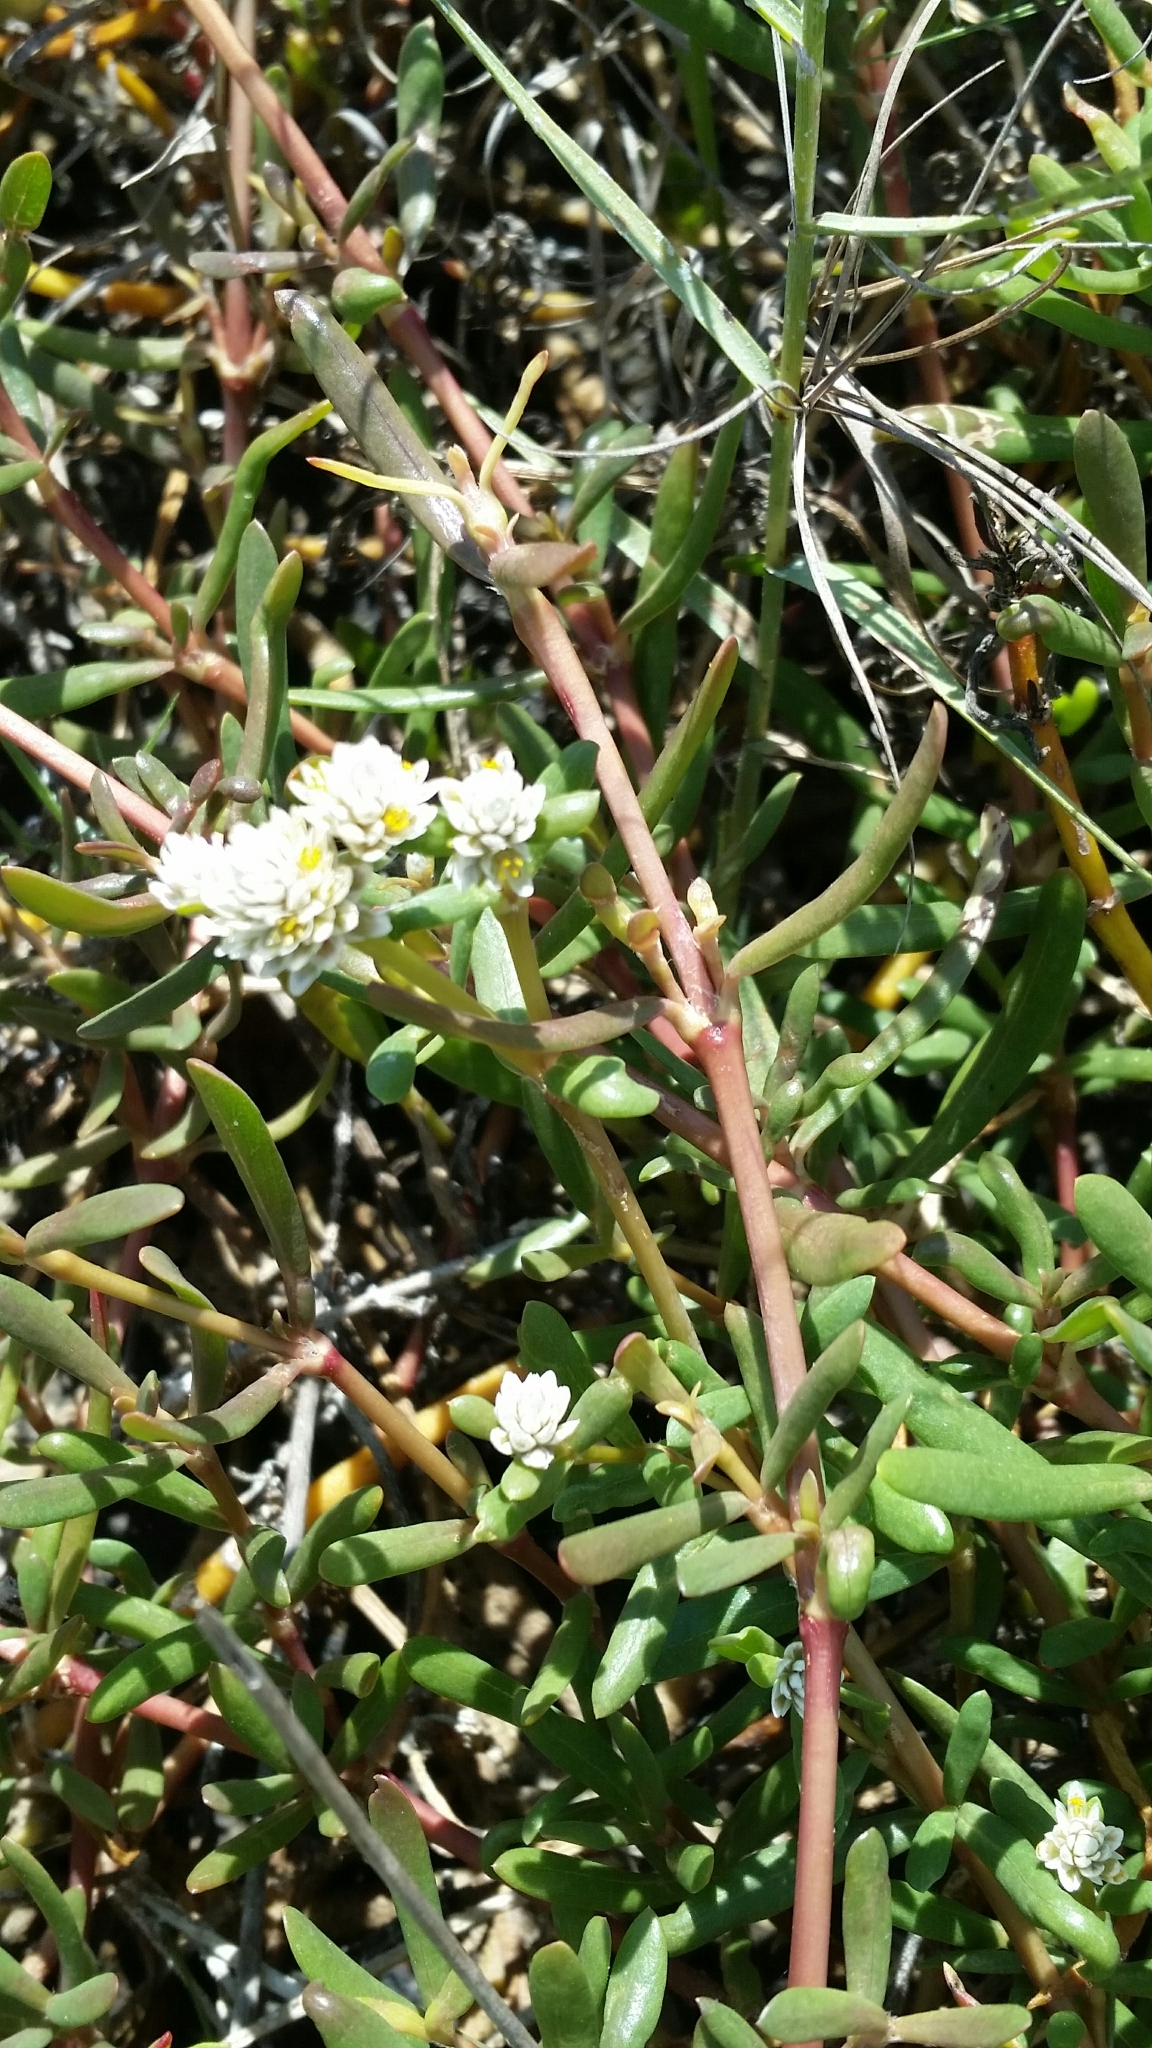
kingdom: Plantae
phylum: Tracheophyta
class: Magnoliopsida
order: Caryophyllales
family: Amaranthaceae
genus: Gomphrena
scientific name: Gomphrena vermicularis
